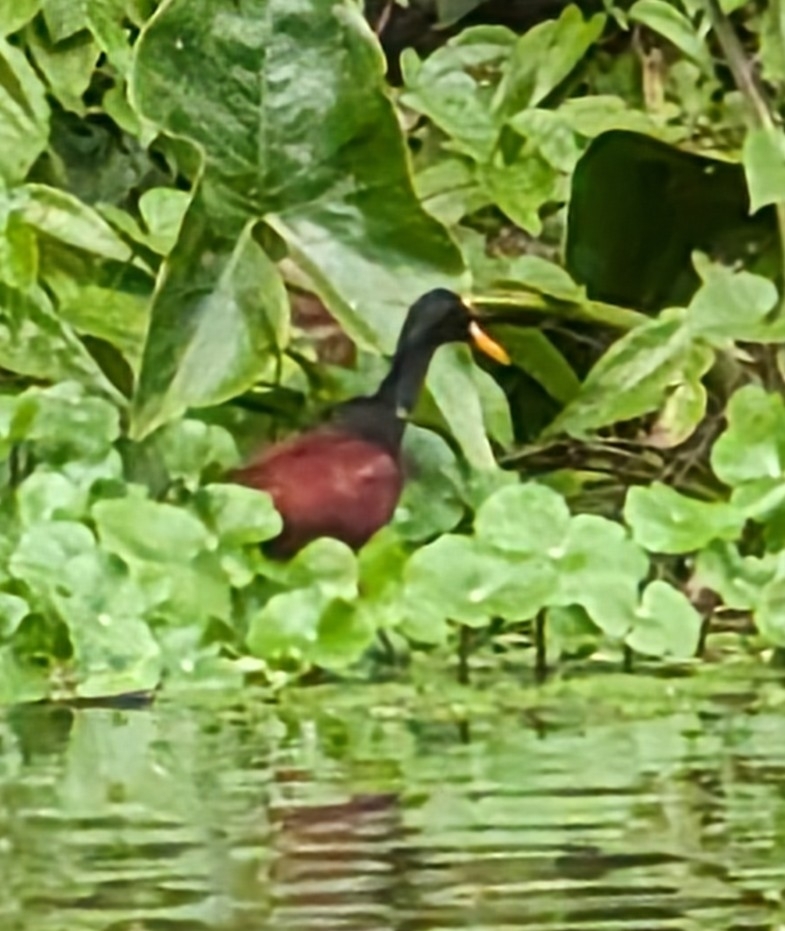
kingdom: Animalia
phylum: Chordata
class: Aves
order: Charadriiformes
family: Jacanidae
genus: Jacana
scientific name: Jacana spinosa
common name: Northern jacana
